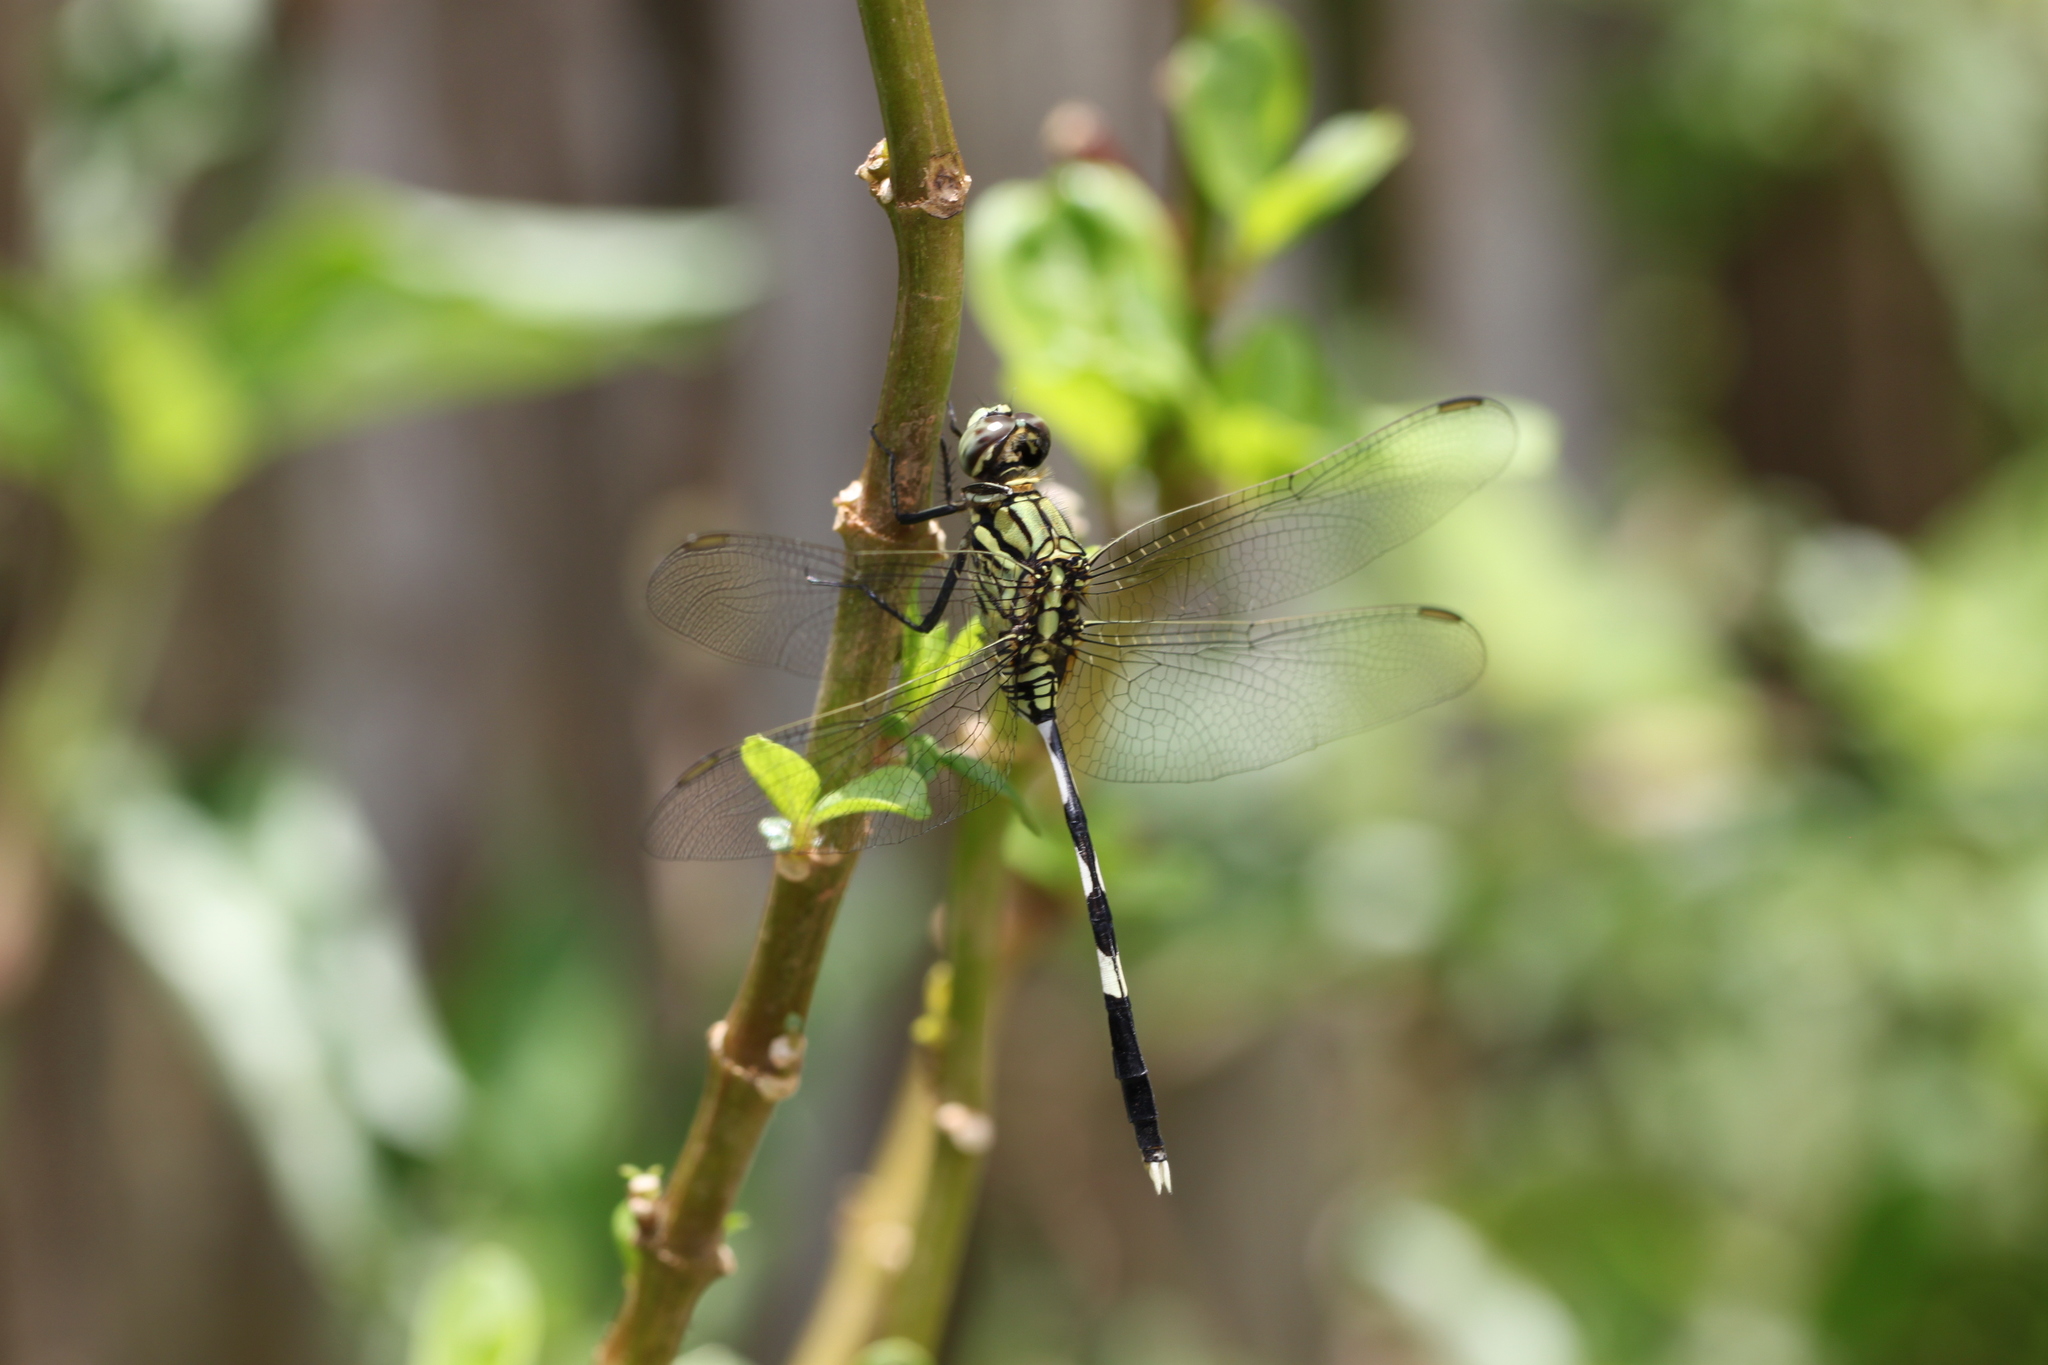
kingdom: Animalia
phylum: Arthropoda
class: Insecta
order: Odonata
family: Libellulidae
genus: Orthetrum
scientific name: Orthetrum sabina
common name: Slender skimmer
